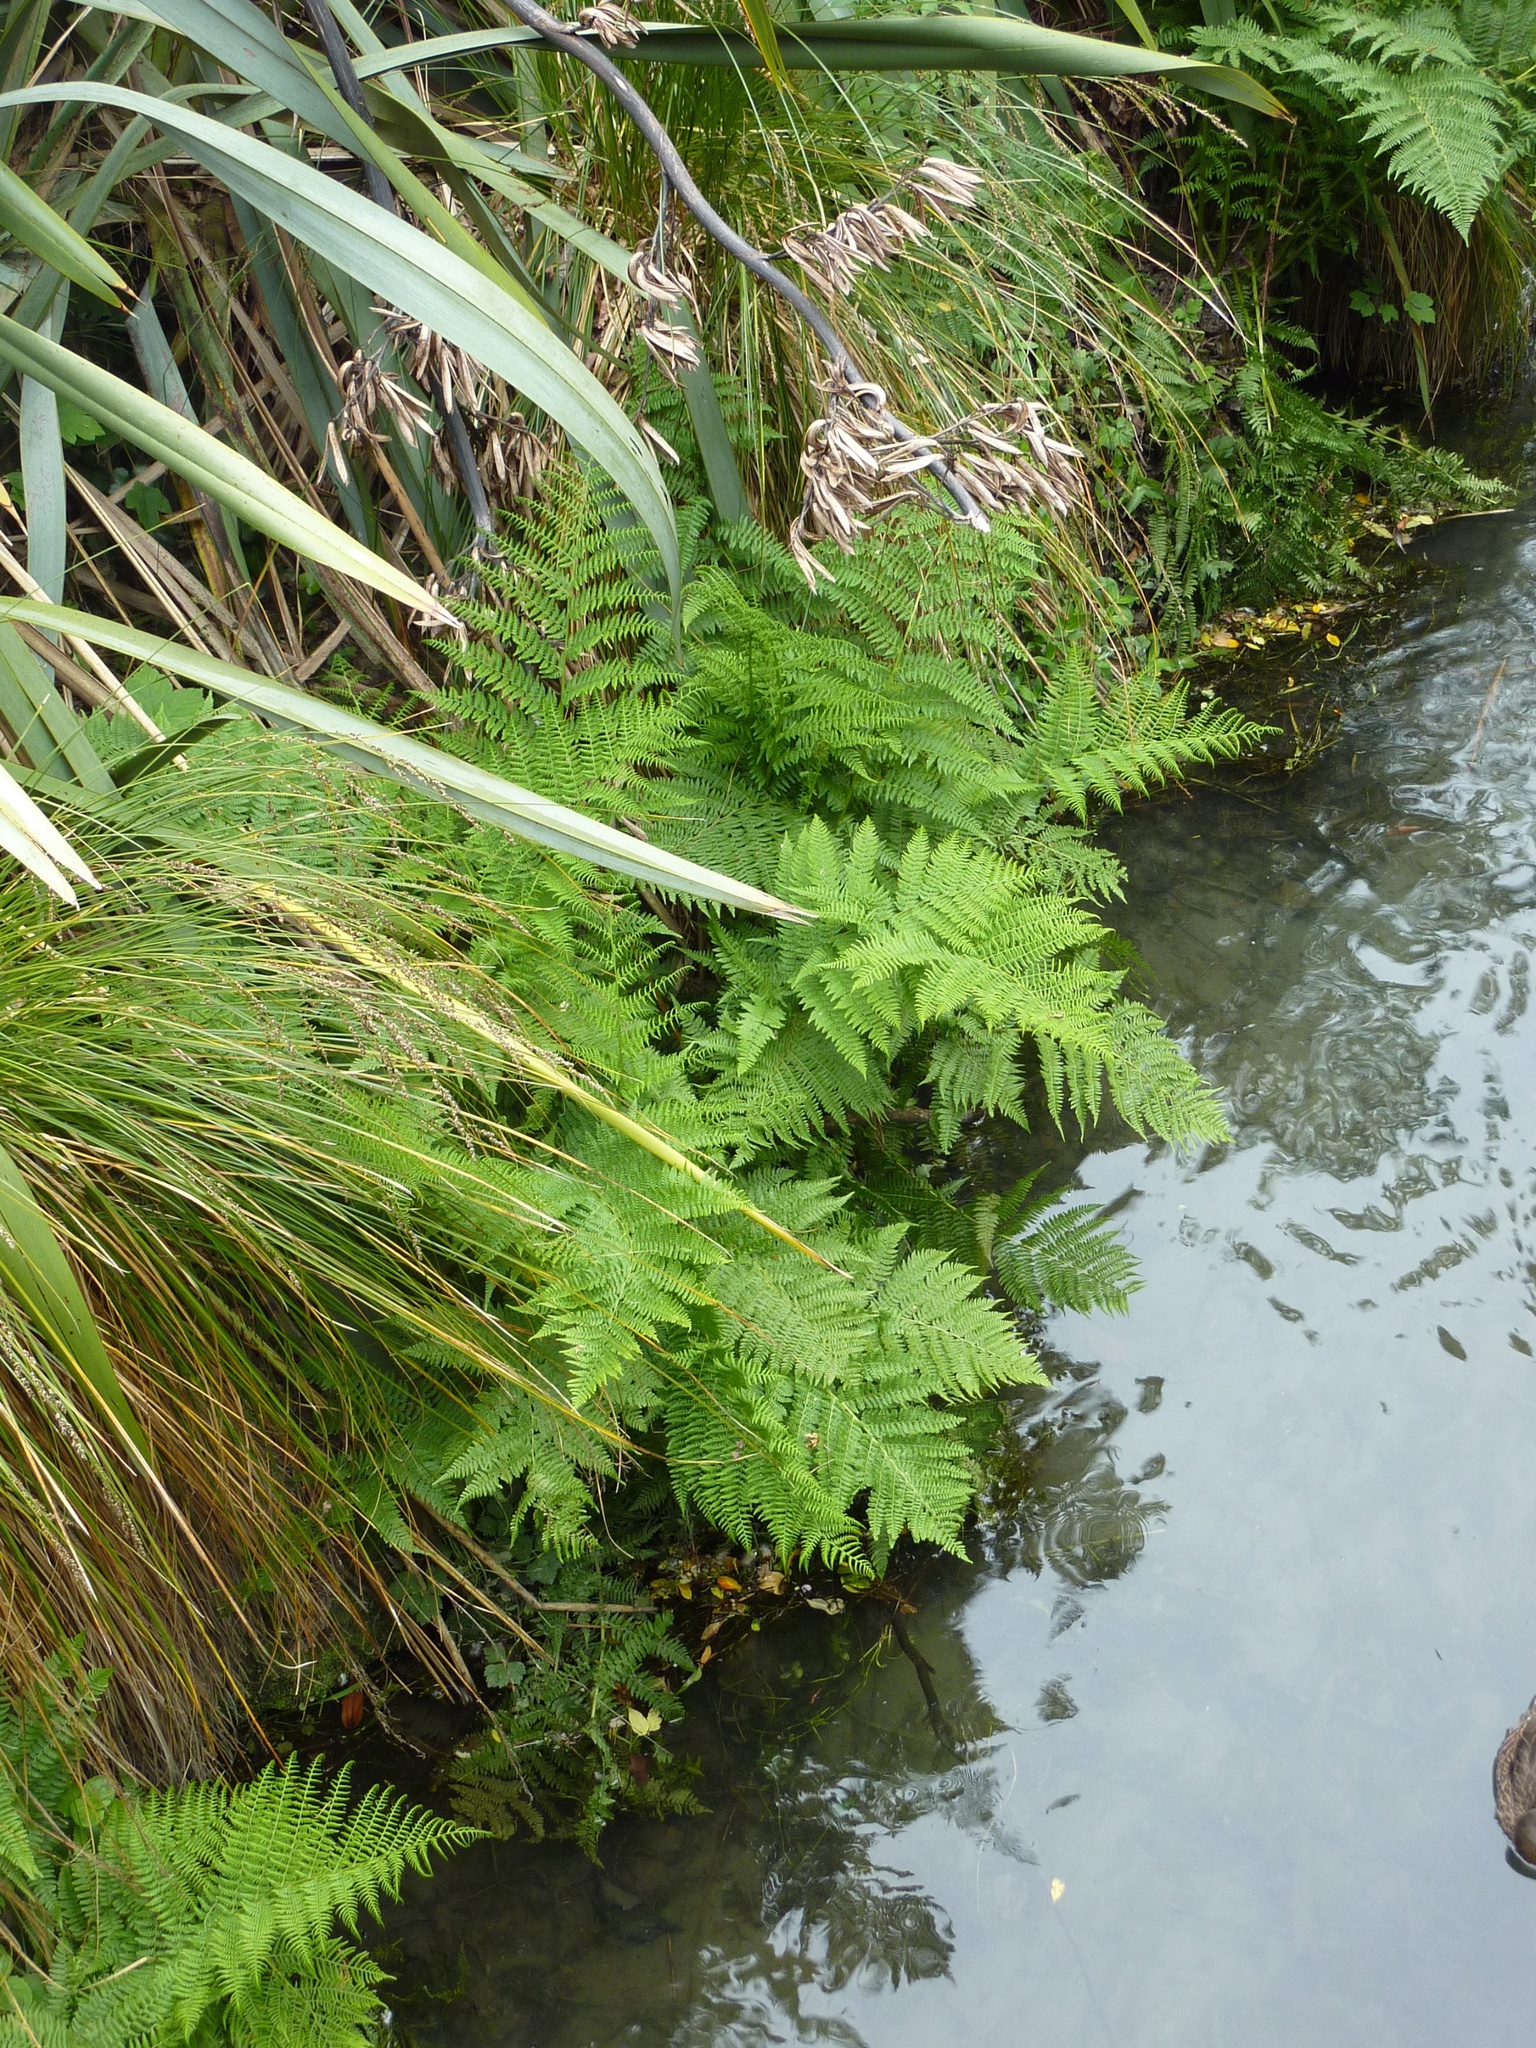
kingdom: Plantae
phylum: Tracheophyta
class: Polypodiopsida
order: Polypodiales
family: Athyriaceae
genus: Athyrium
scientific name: Athyrium filix-femina
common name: Lady fern
